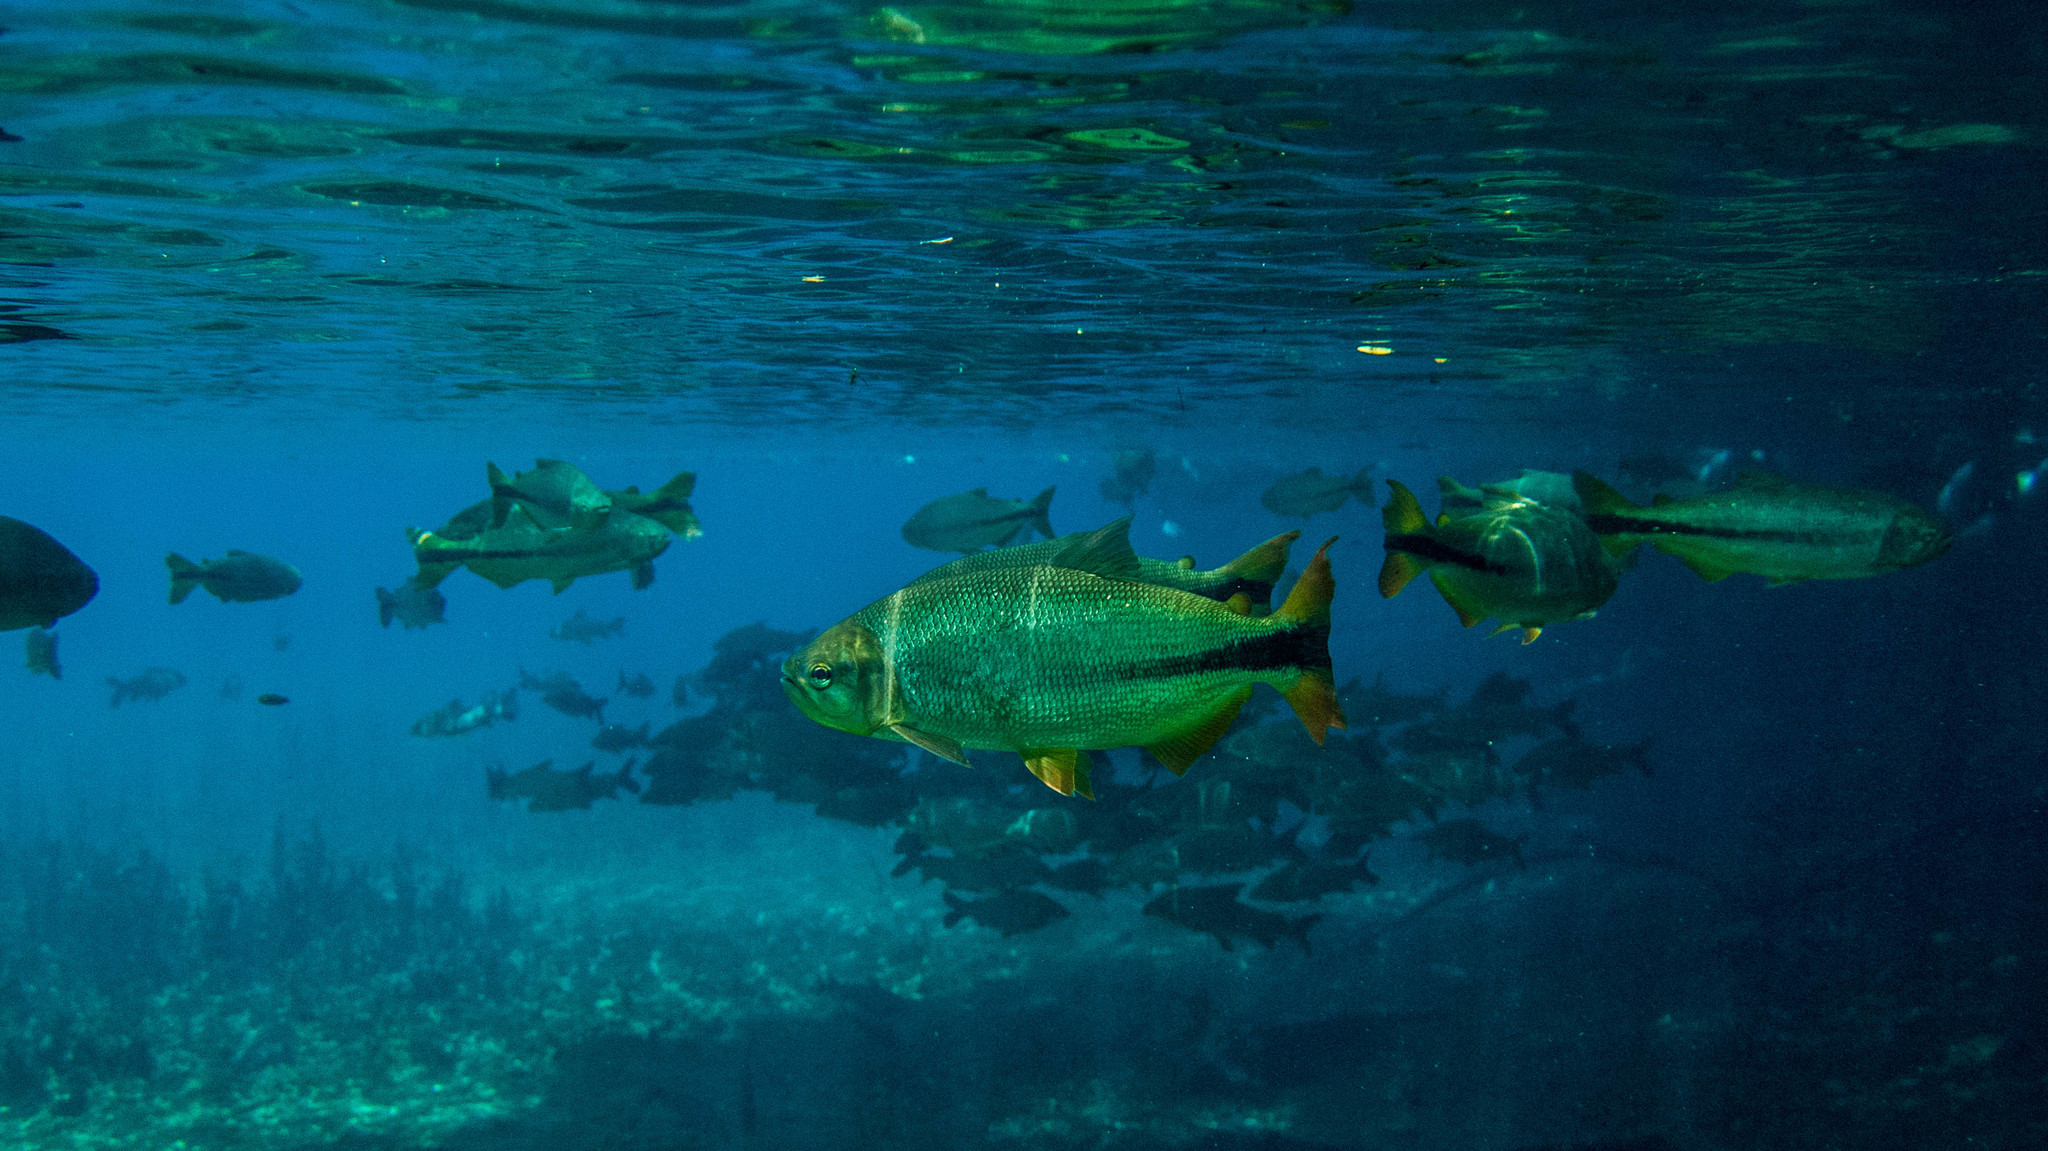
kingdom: Animalia
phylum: Chordata
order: Characiformes
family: Bryconidae
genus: Brycon
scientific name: Brycon hilarii
